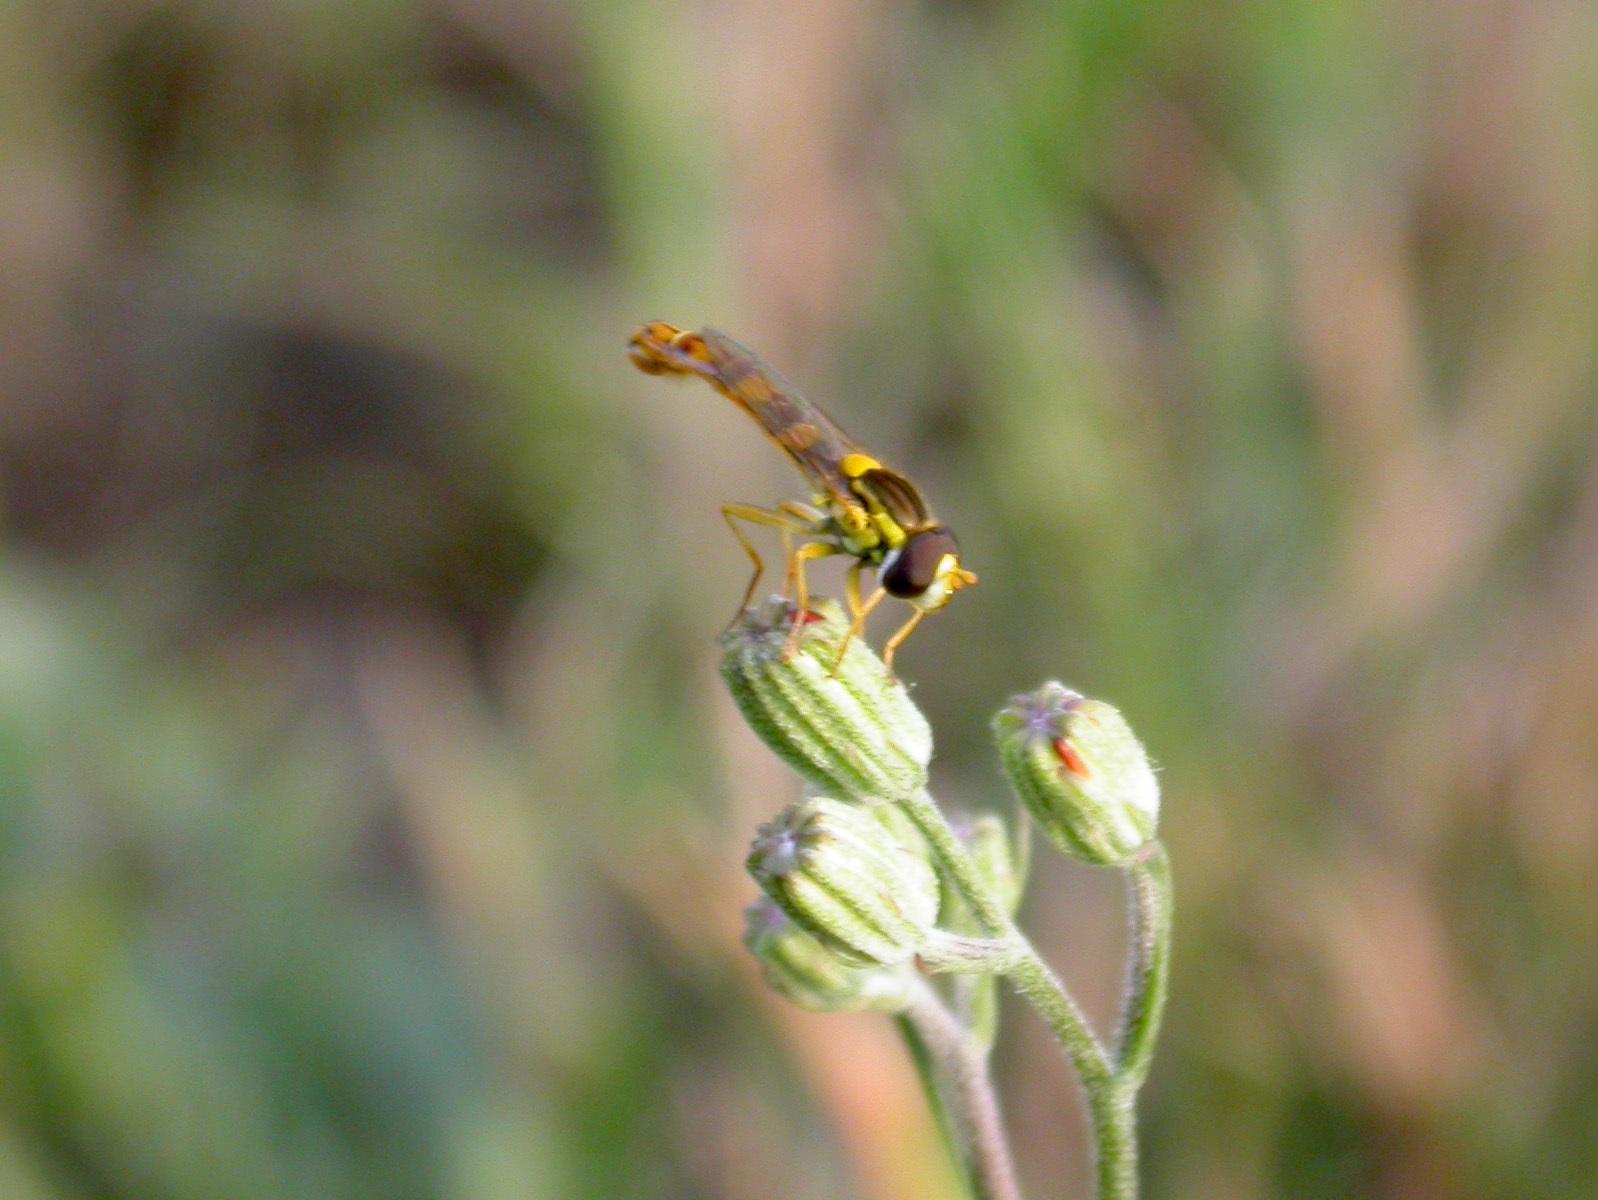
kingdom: Animalia
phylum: Arthropoda
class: Insecta
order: Diptera
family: Syrphidae
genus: Sphaerophoria
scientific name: Sphaerophoria scripta
